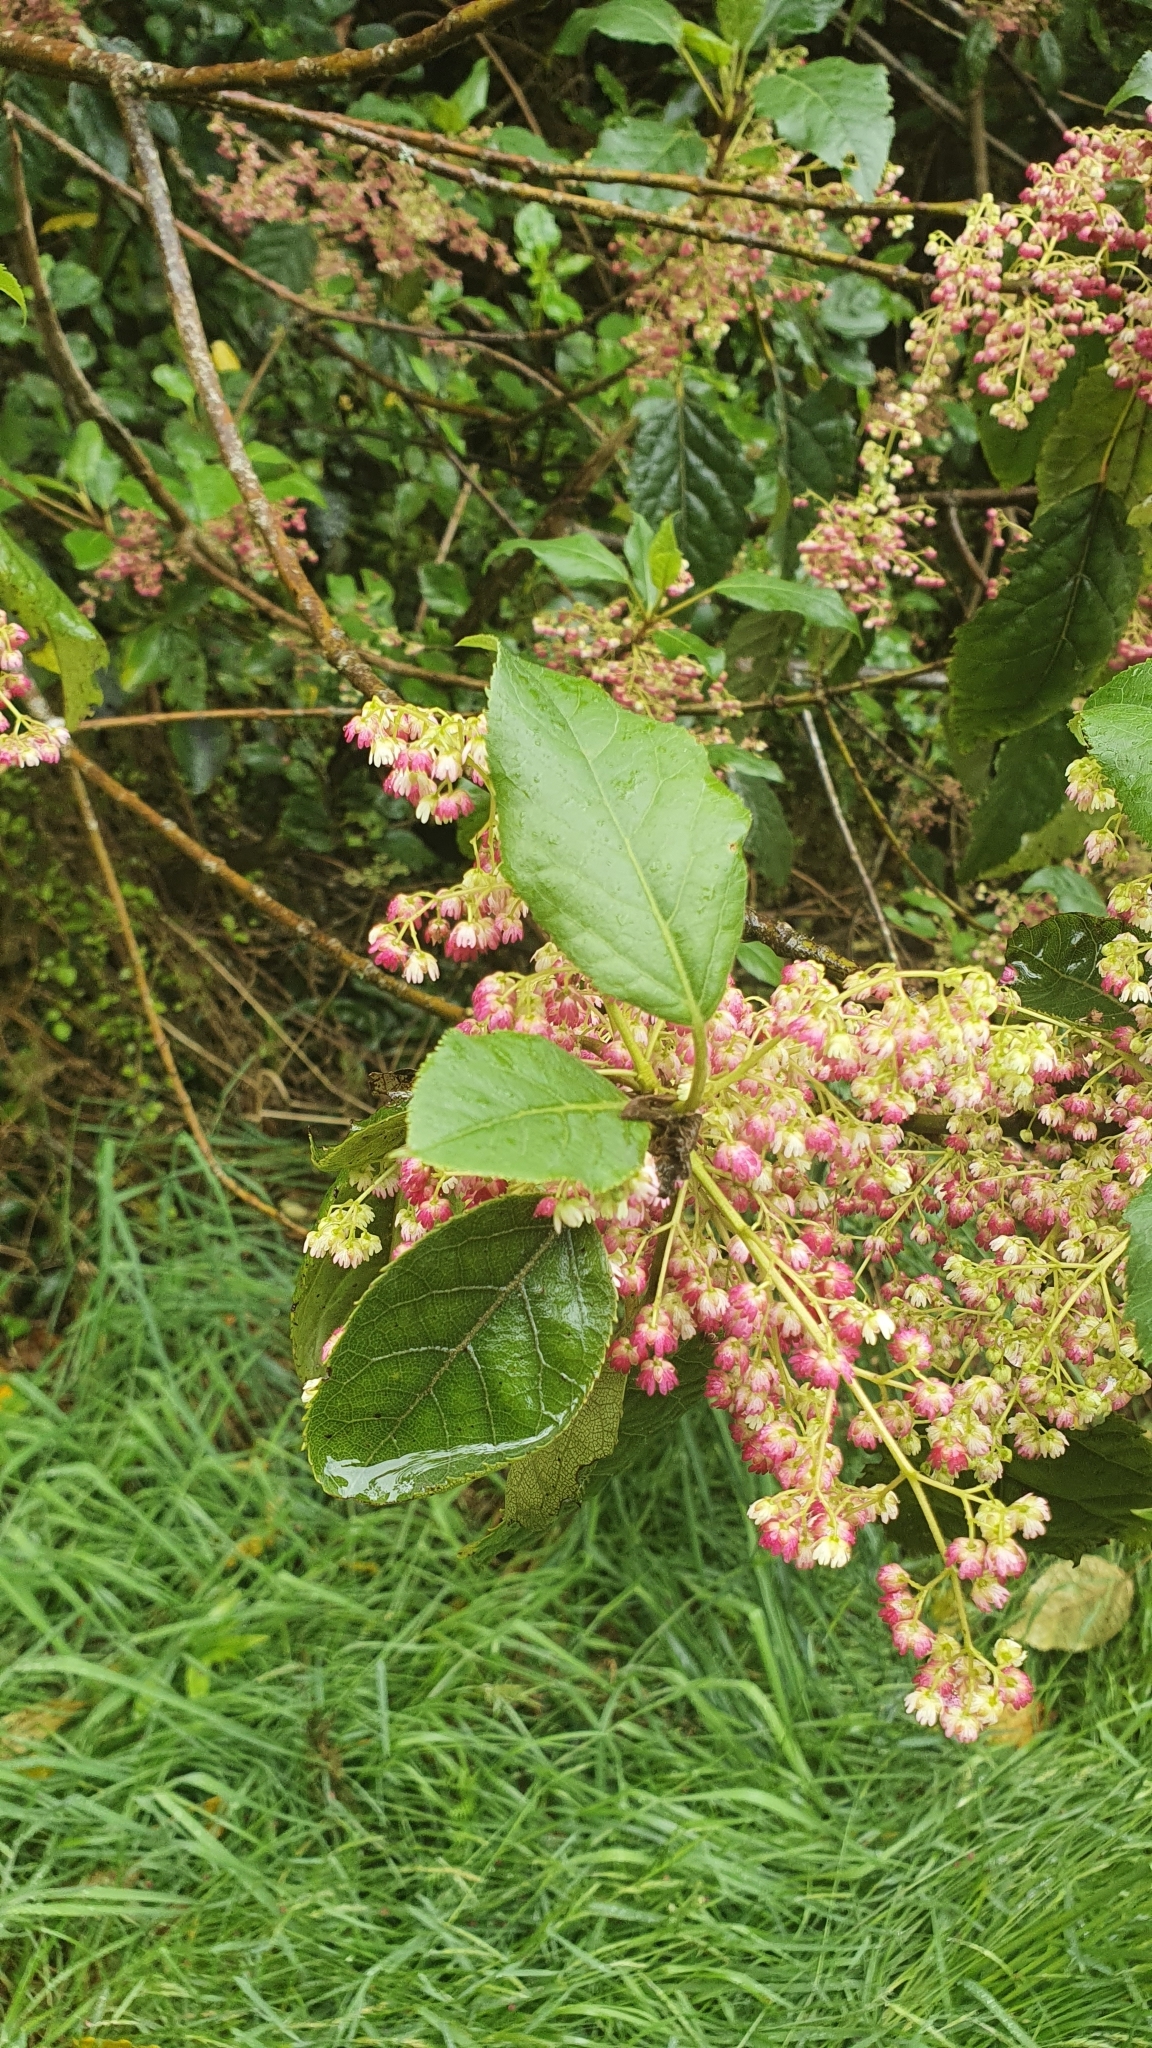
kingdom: Plantae
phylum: Tracheophyta
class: Magnoliopsida
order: Oxalidales
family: Elaeocarpaceae
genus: Aristotelia
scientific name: Aristotelia serrata
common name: New zealand wineberry
